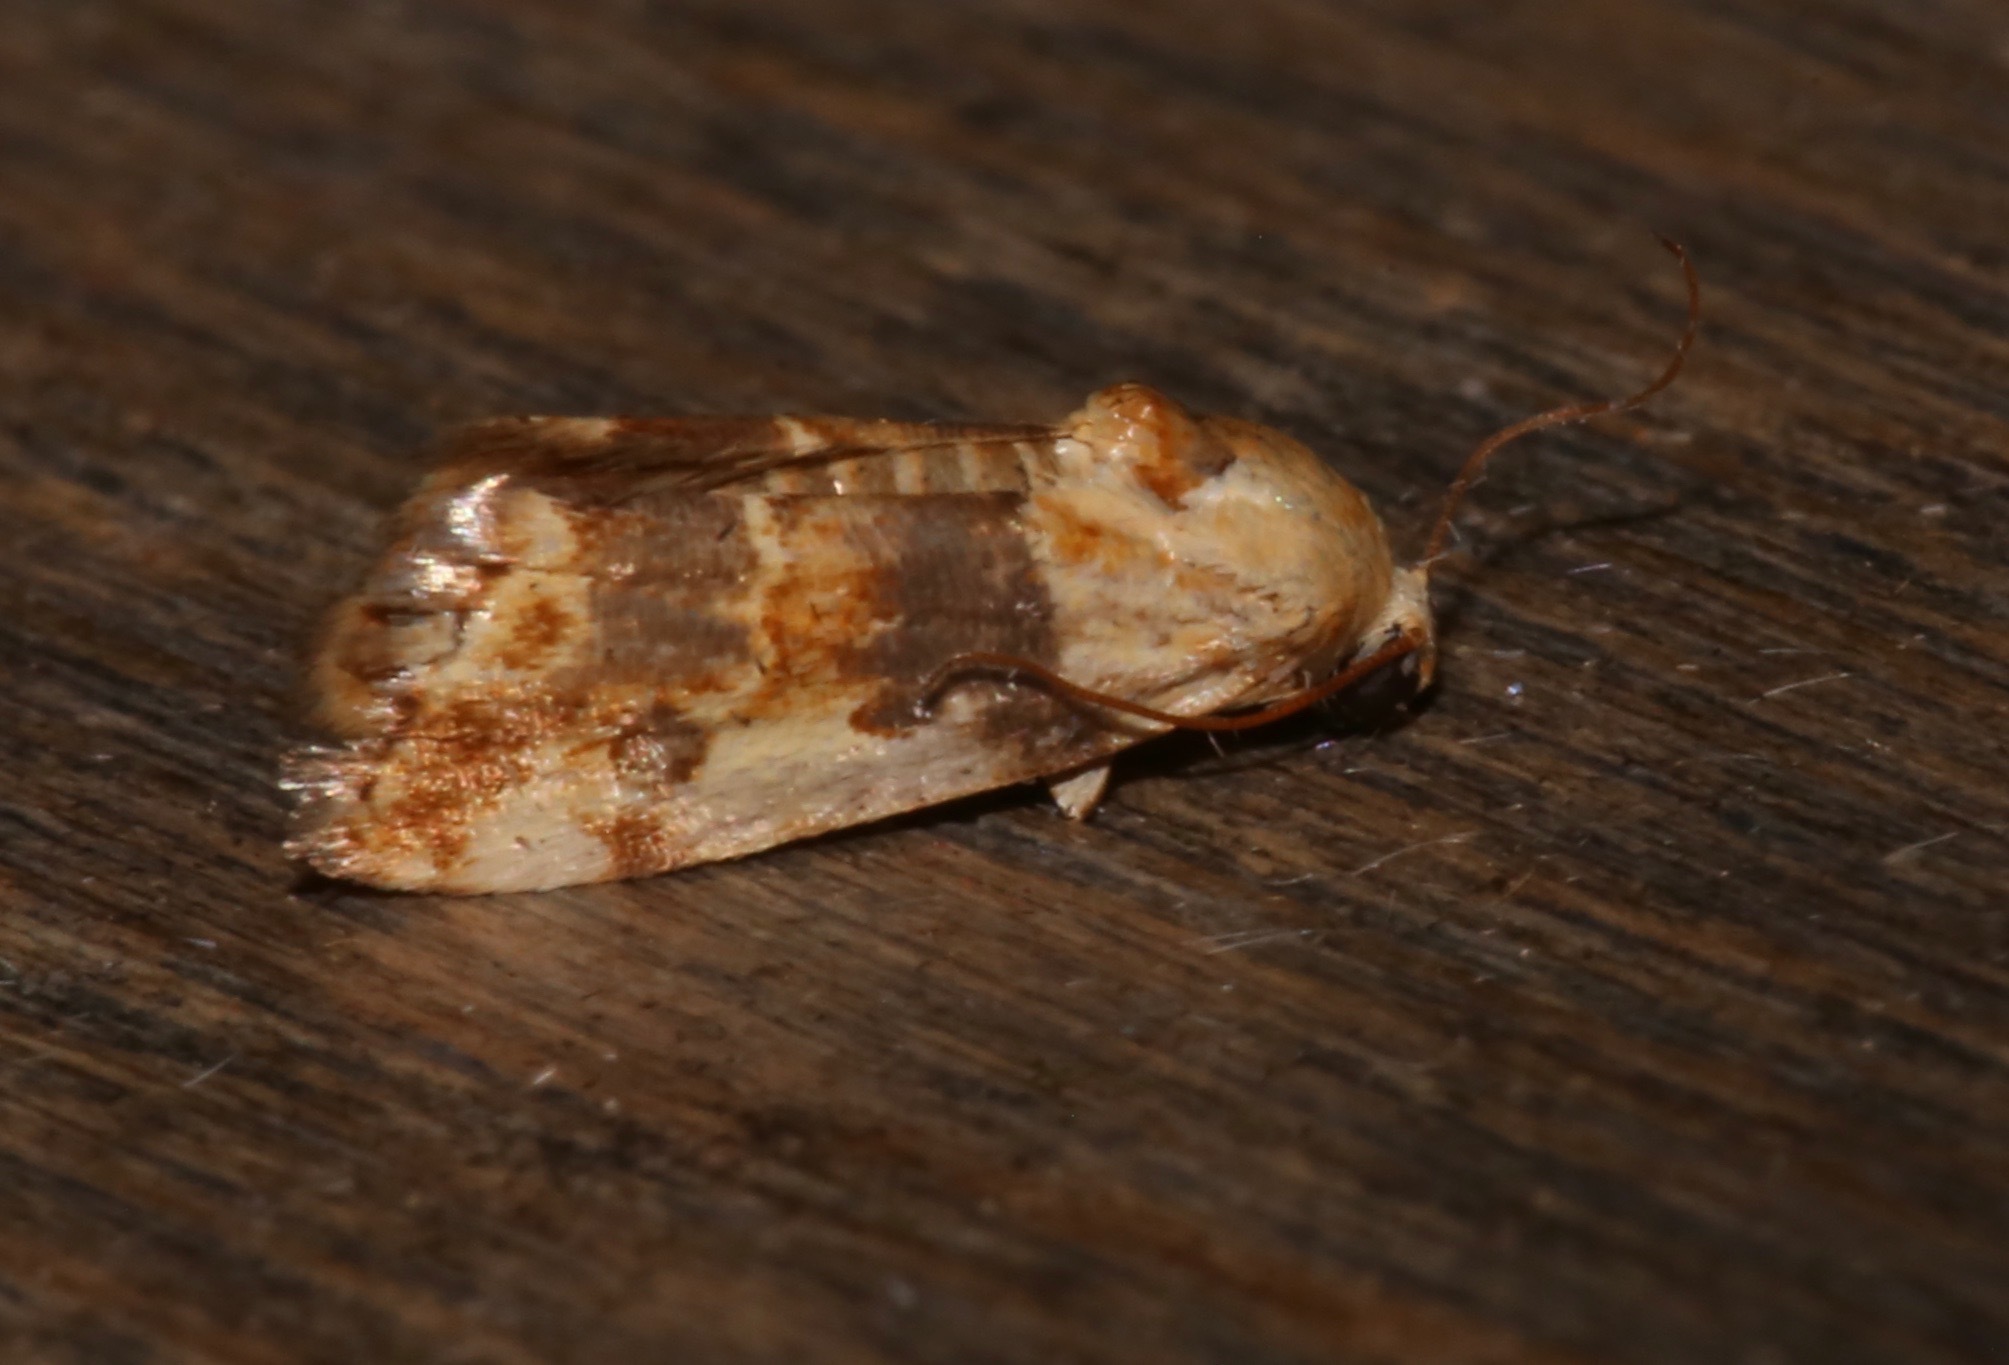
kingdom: Animalia
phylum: Arthropoda
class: Insecta
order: Lepidoptera
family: Noctuidae
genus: Acontia
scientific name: Acontia obatra
